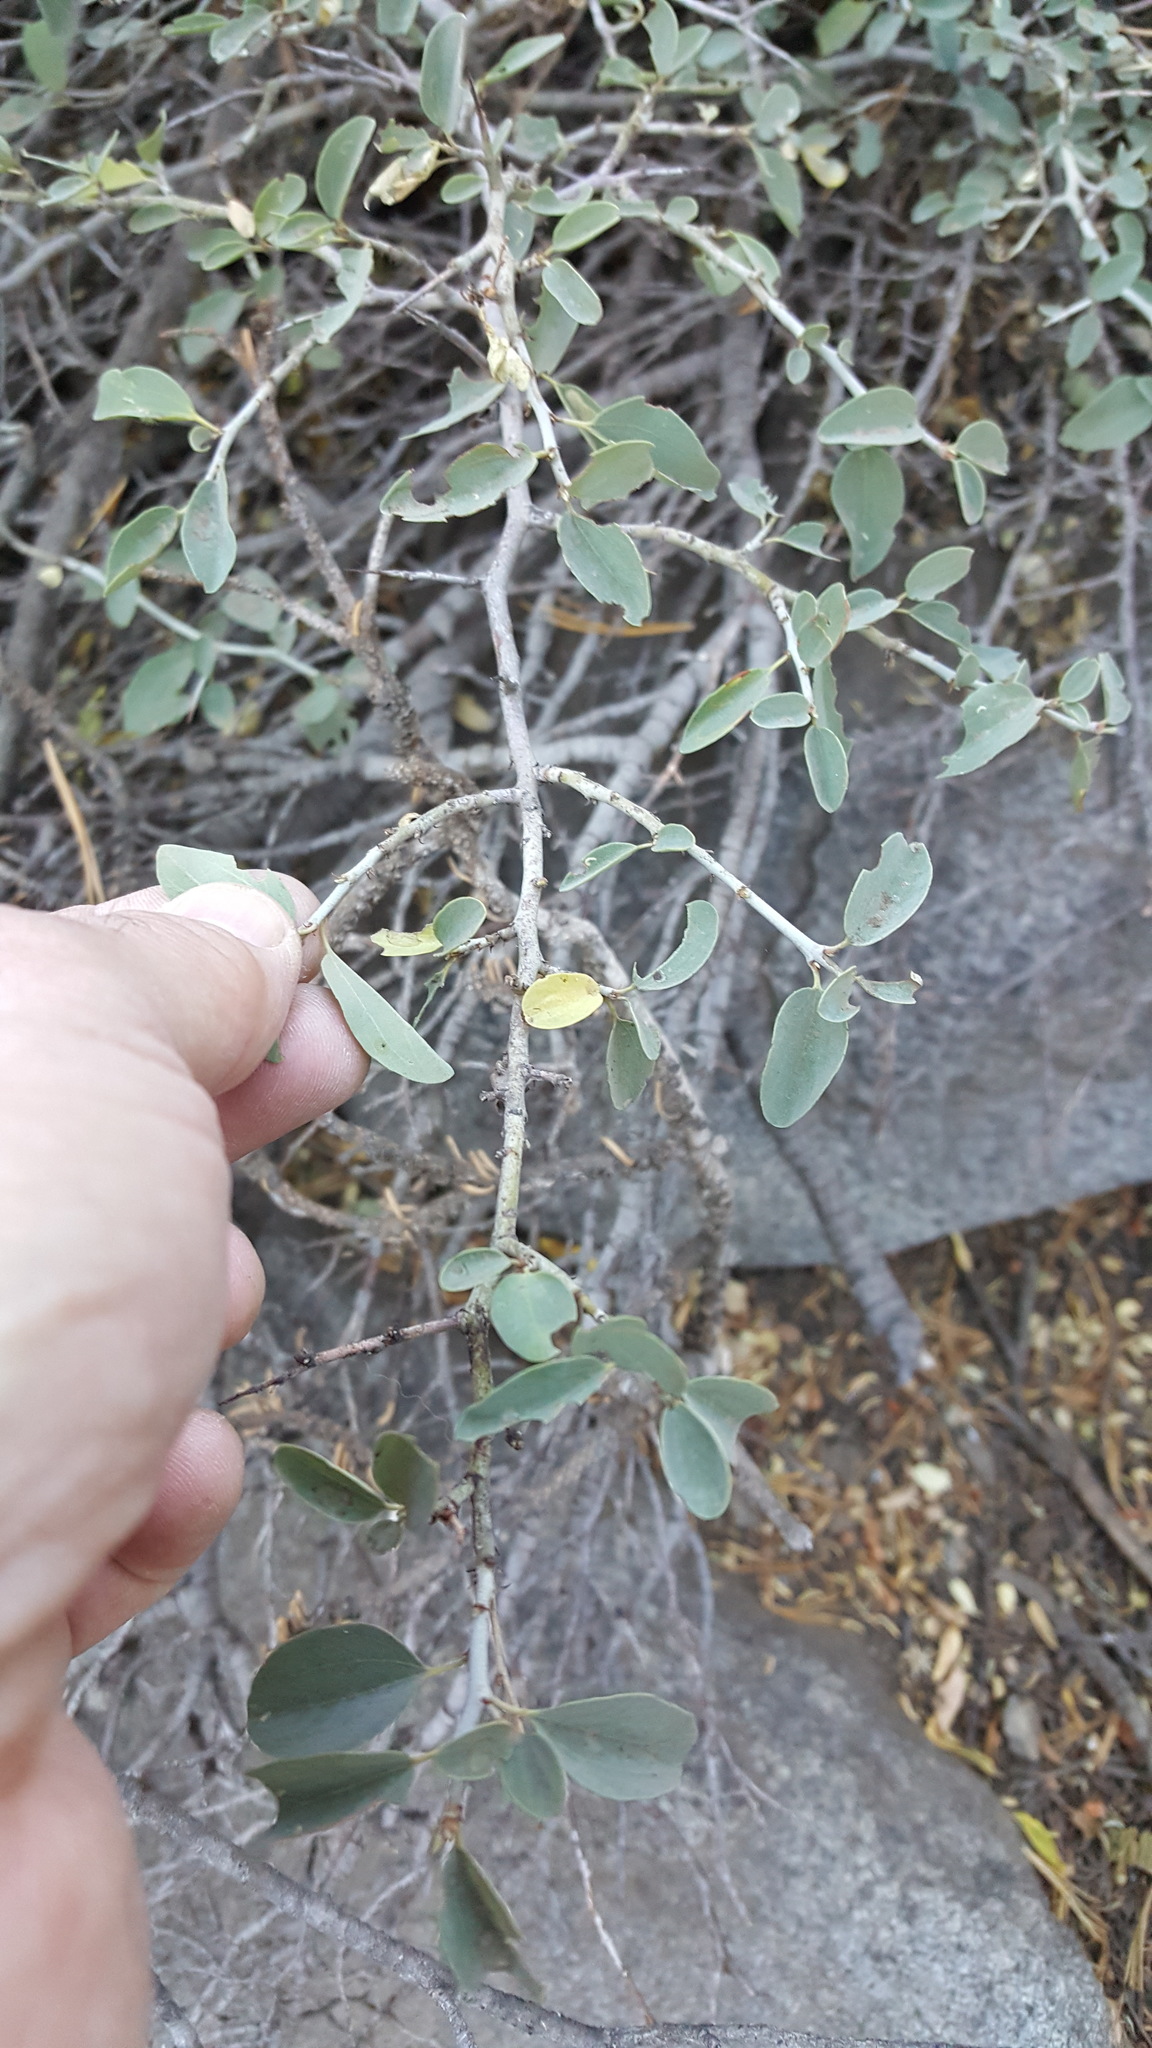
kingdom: Plantae
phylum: Tracheophyta
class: Magnoliopsida
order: Rosales
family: Rhamnaceae
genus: Ceanothus
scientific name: Ceanothus cordulatus
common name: Mountain whitethorn
